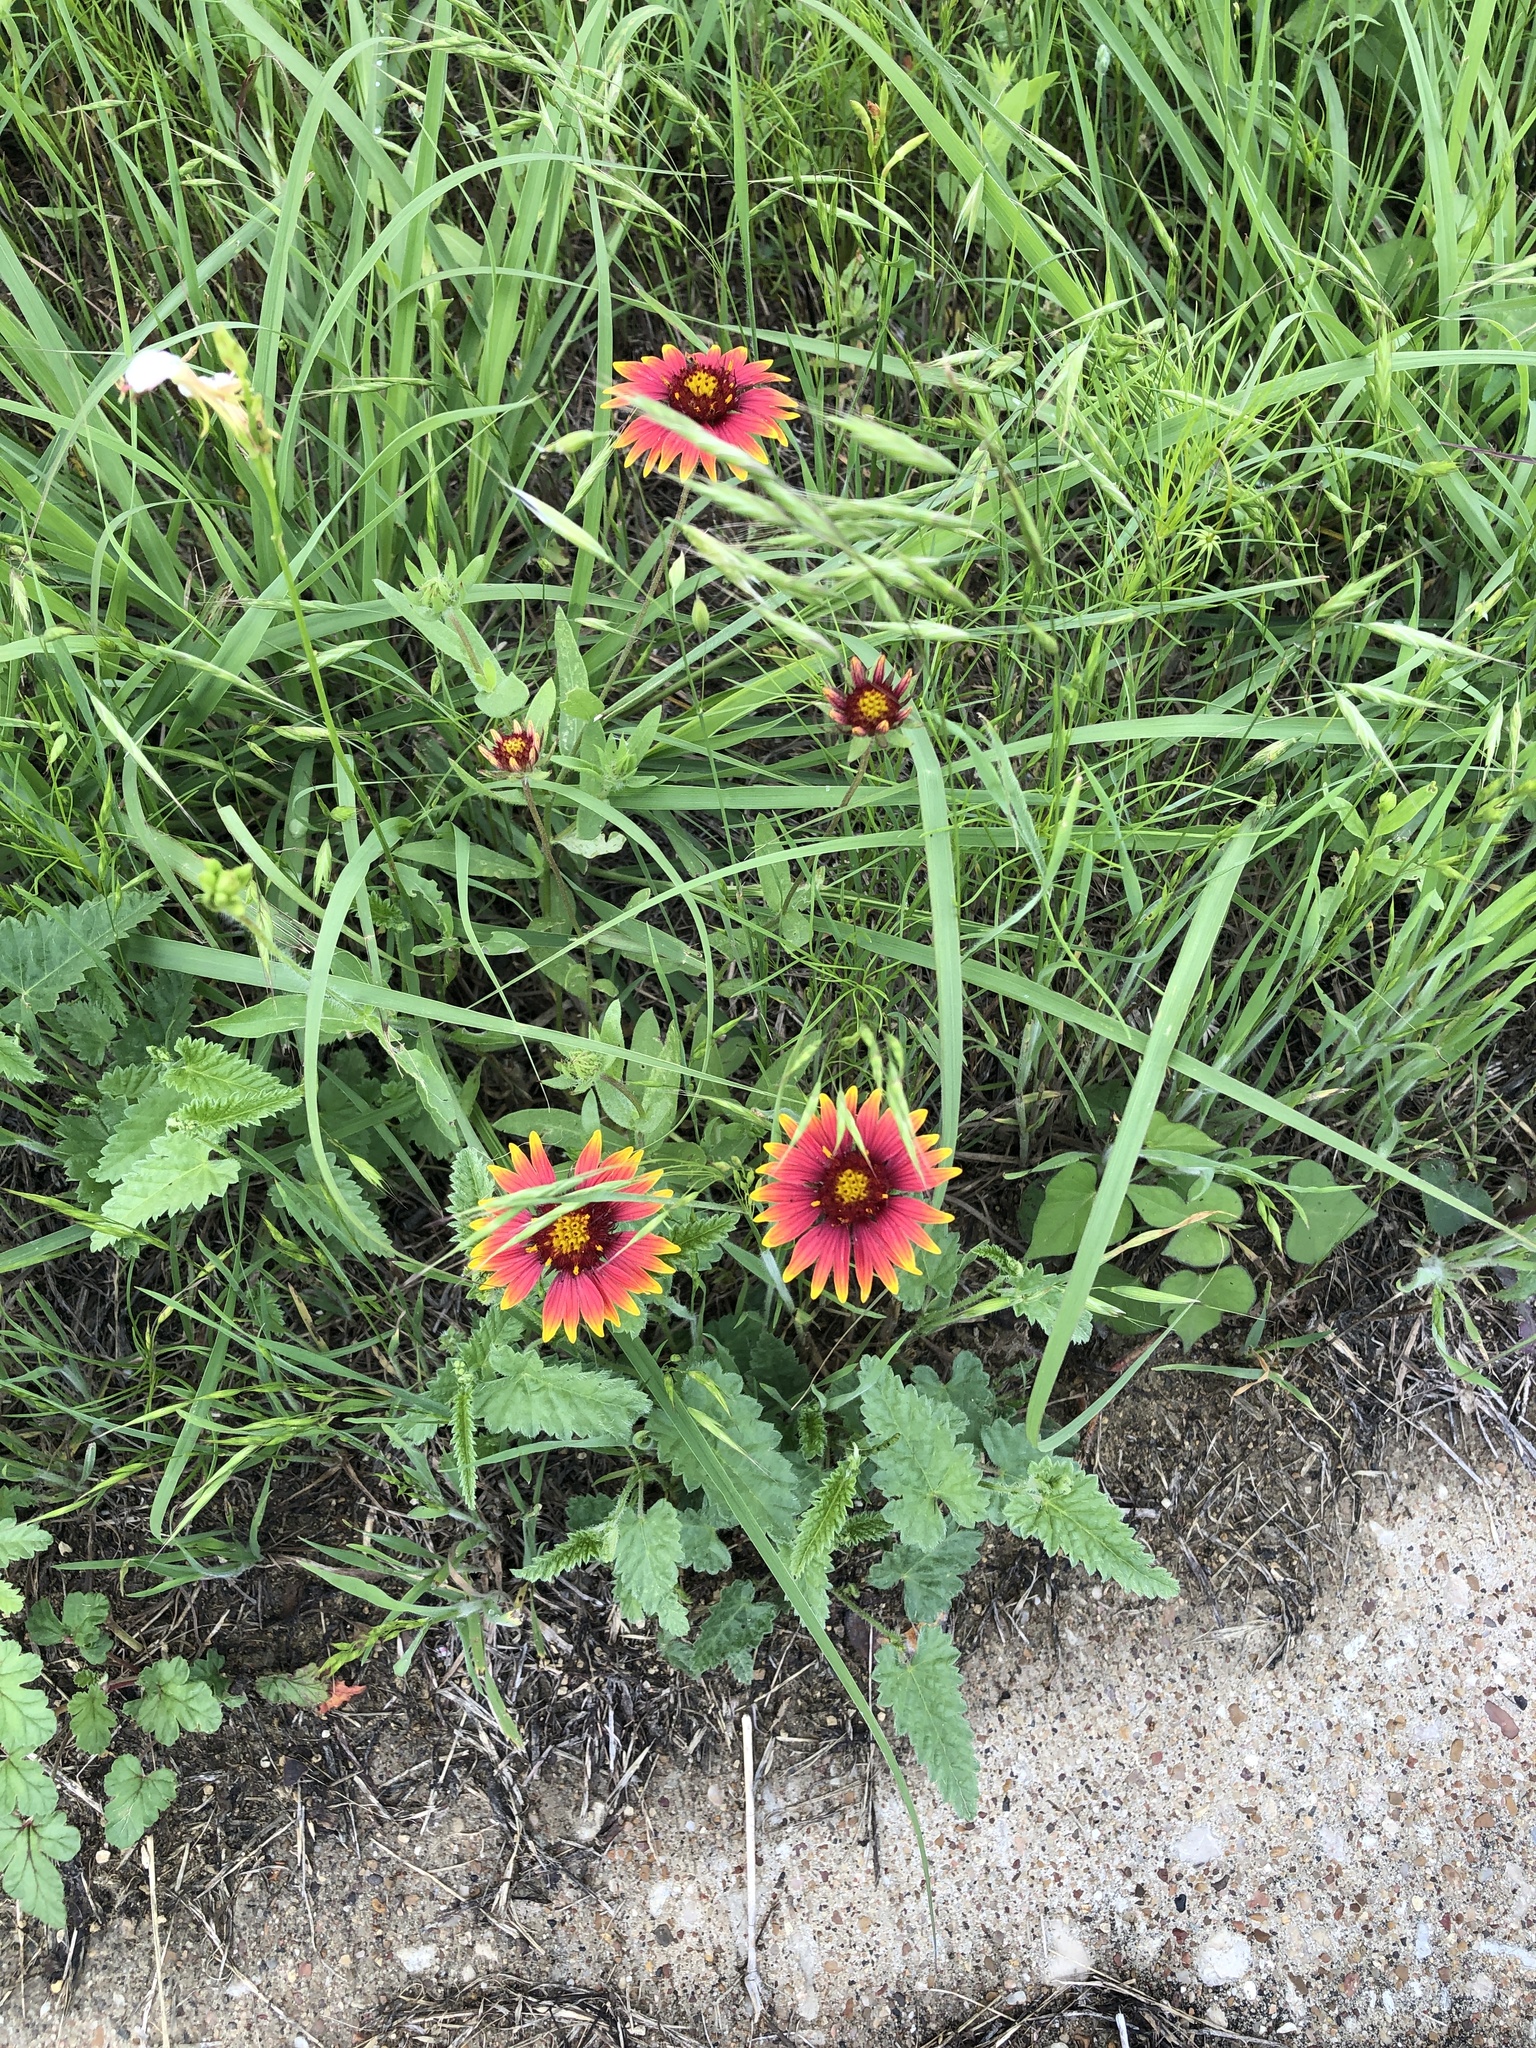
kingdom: Plantae
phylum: Tracheophyta
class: Magnoliopsida
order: Asterales
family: Asteraceae
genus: Gaillardia
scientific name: Gaillardia pulchella
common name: Firewheel
